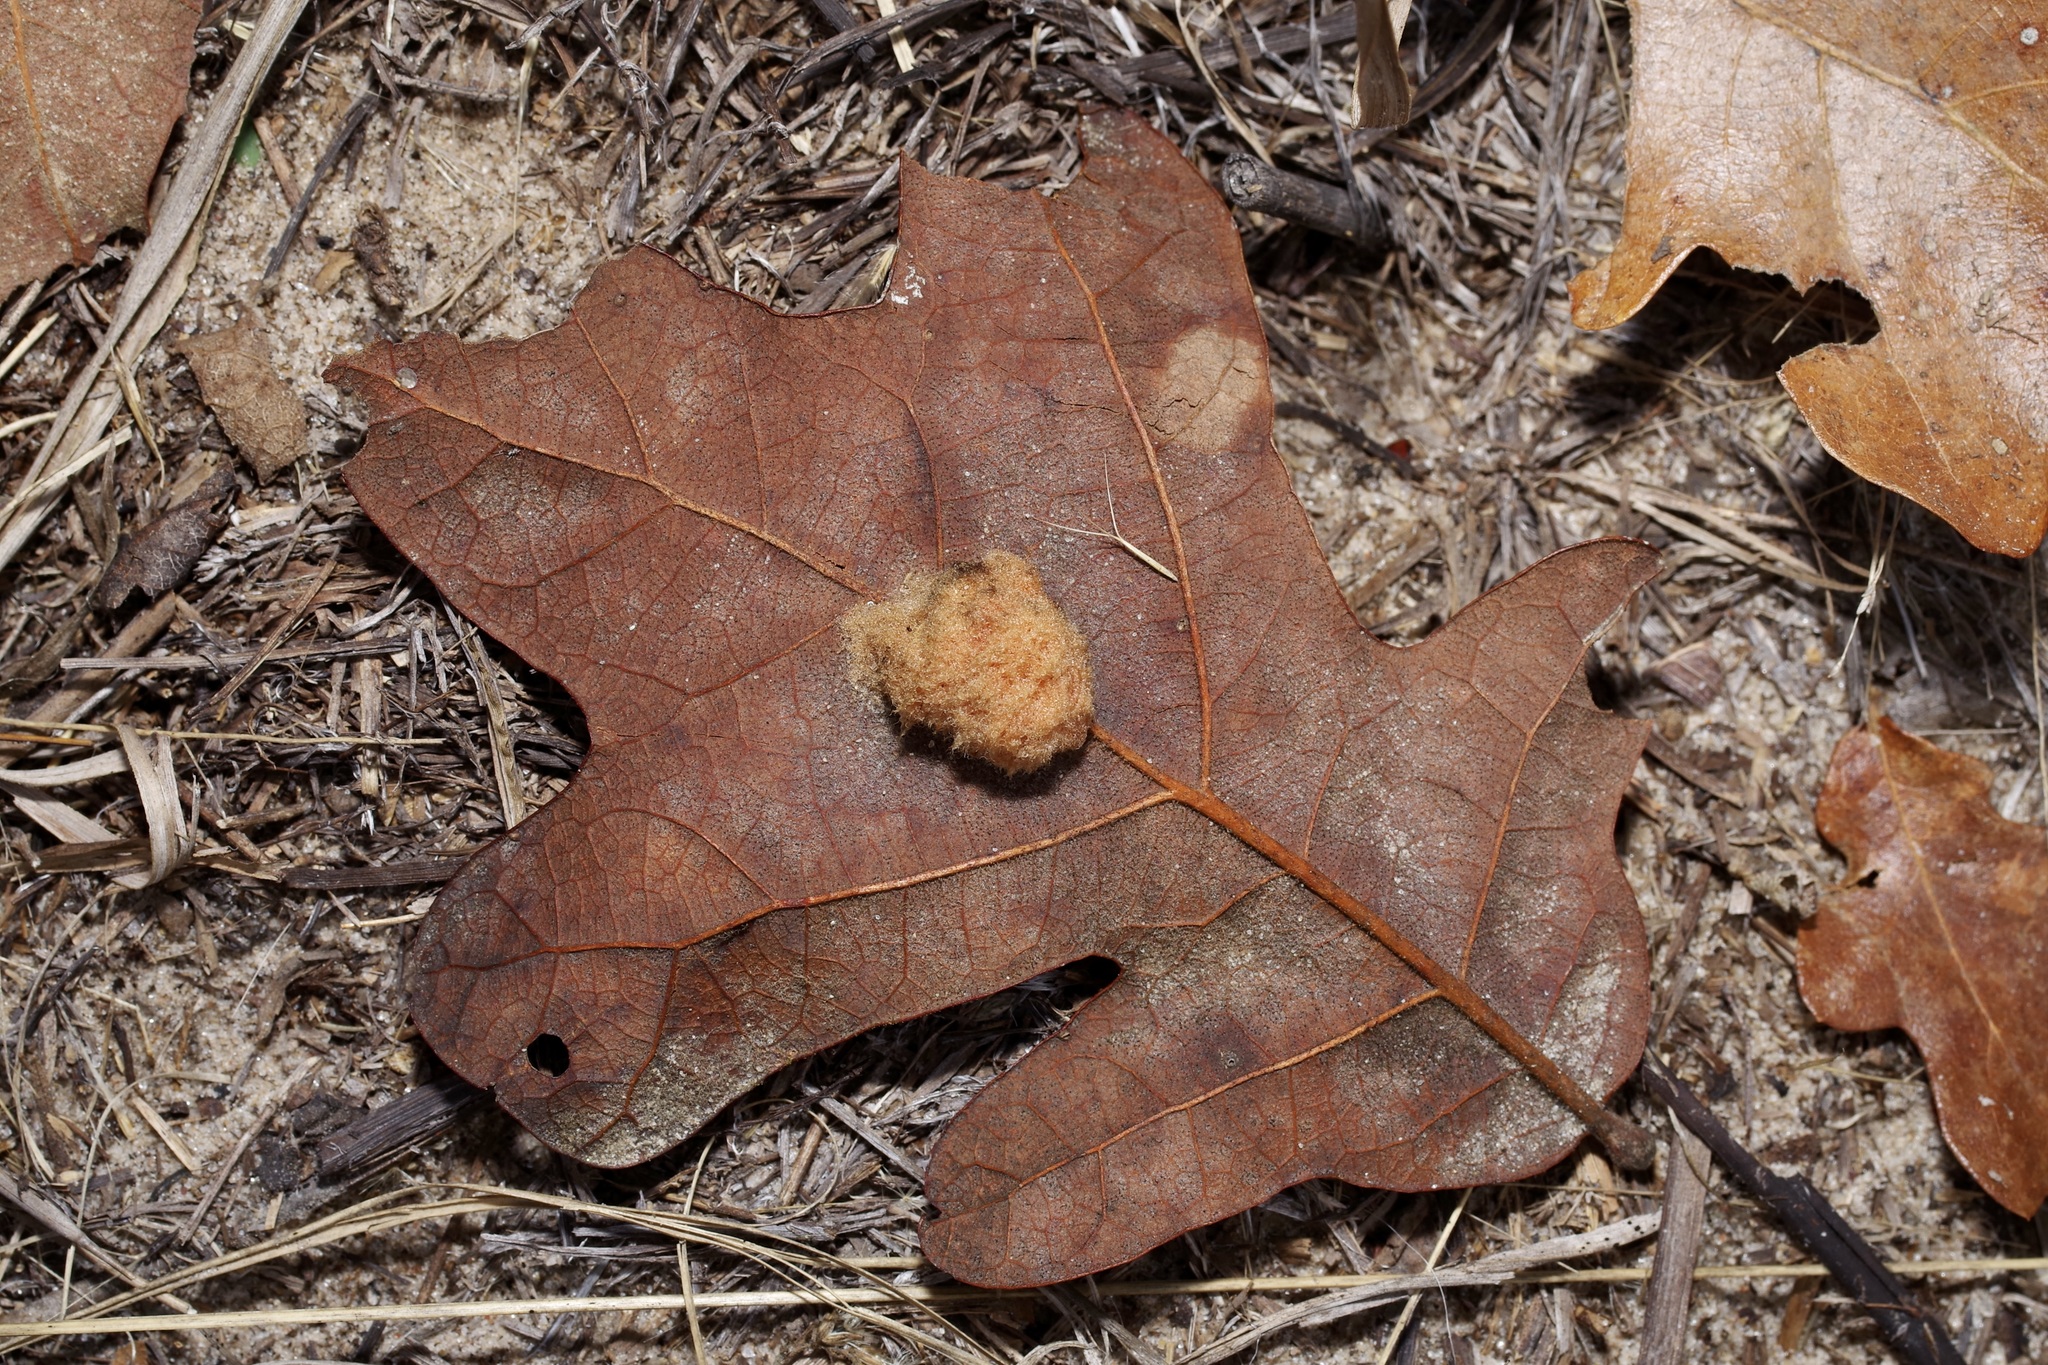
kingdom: Animalia
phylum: Arthropoda
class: Insecta
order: Hymenoptera
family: Cynipidae
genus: Andricus
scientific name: Andricus Druon pattoni
